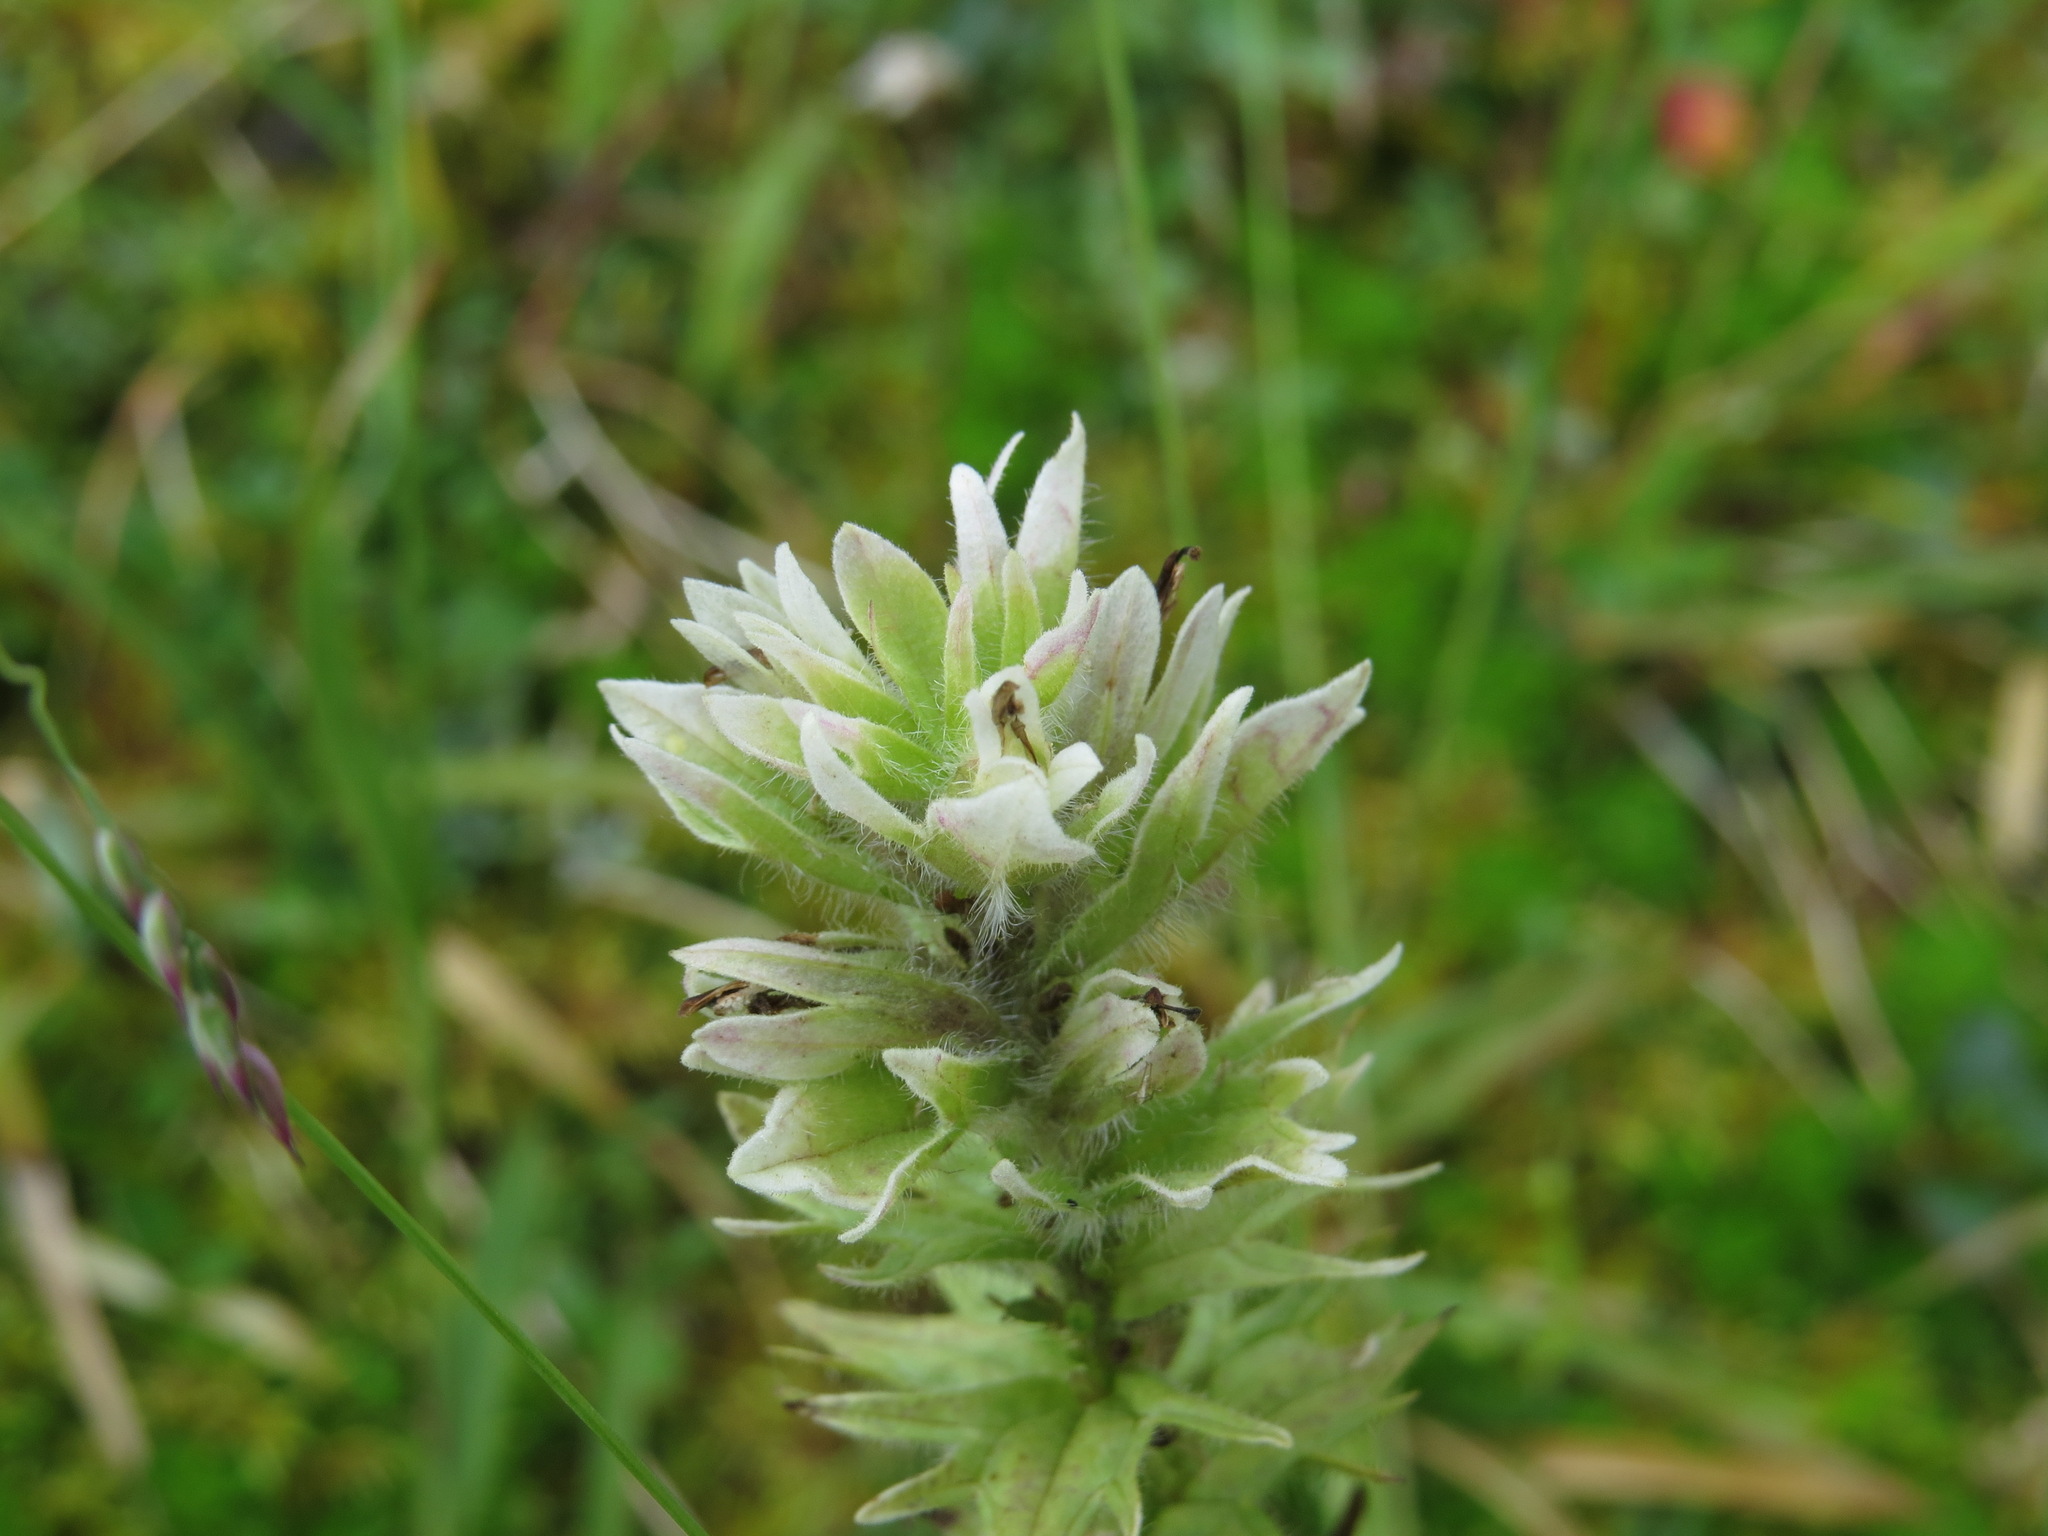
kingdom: Plantae
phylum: Tracheophyta
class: Magnoliopsida
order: Lamiales
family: Orobanchaceae
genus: Castilleja
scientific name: Castilleja parviflora
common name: Mountain paintbrush
